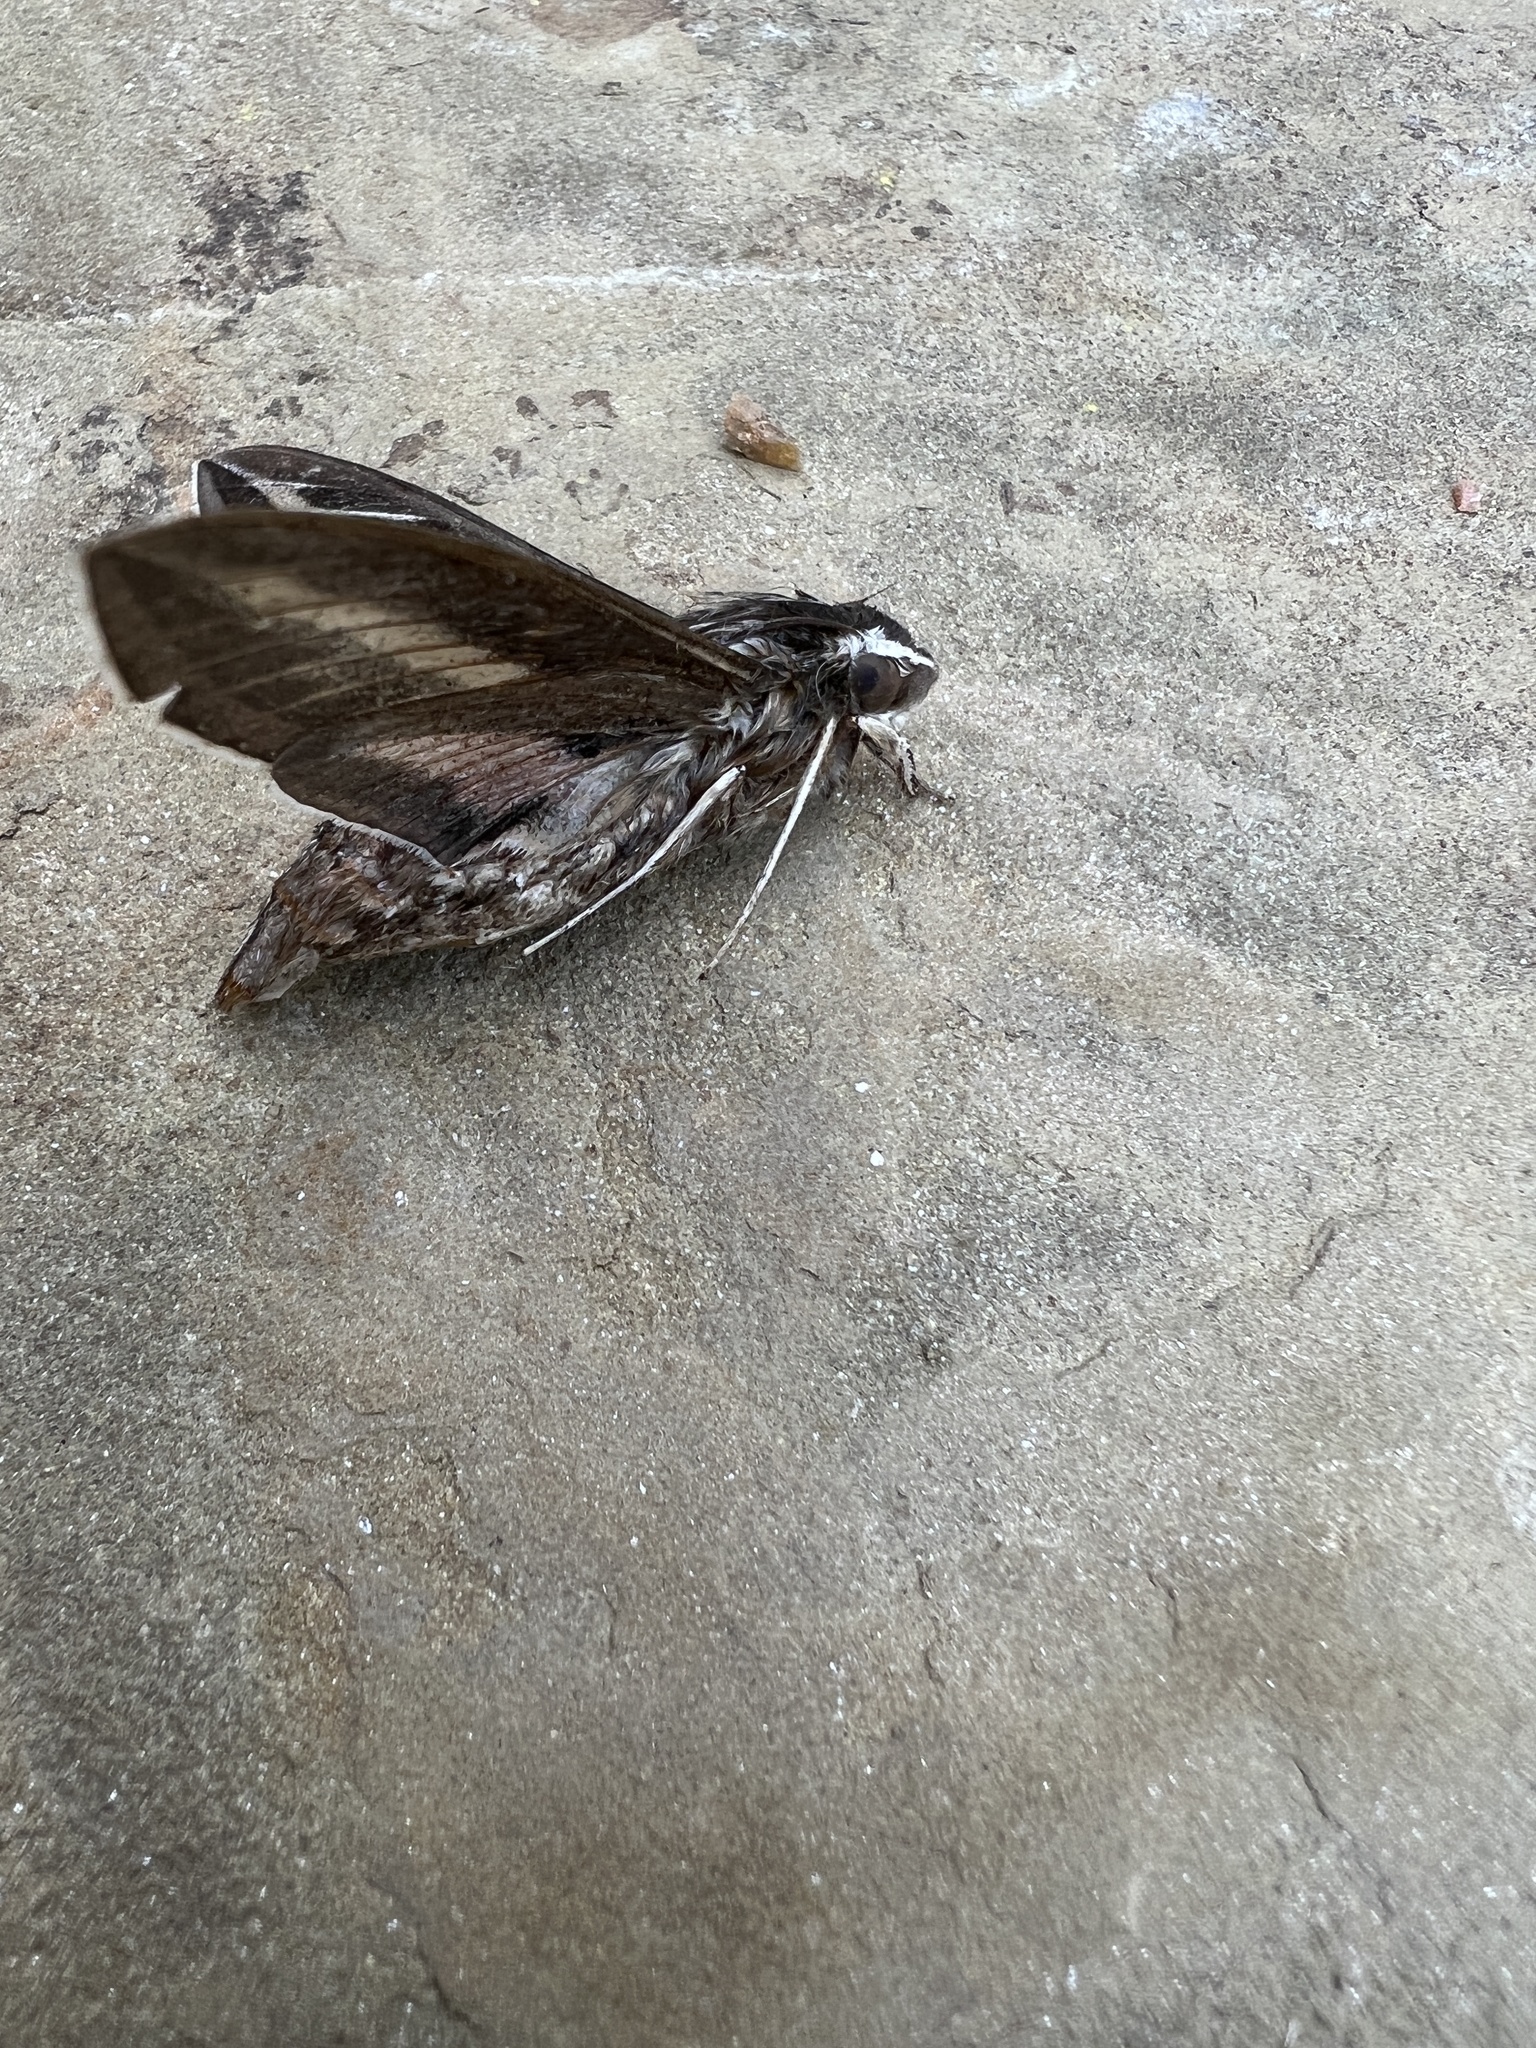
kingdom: Animalia
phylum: Arthropoda
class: Insecta
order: Lepidoptera
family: Sphingidae
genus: Hyles
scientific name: Hyles lineata
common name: White-lined sphinx
